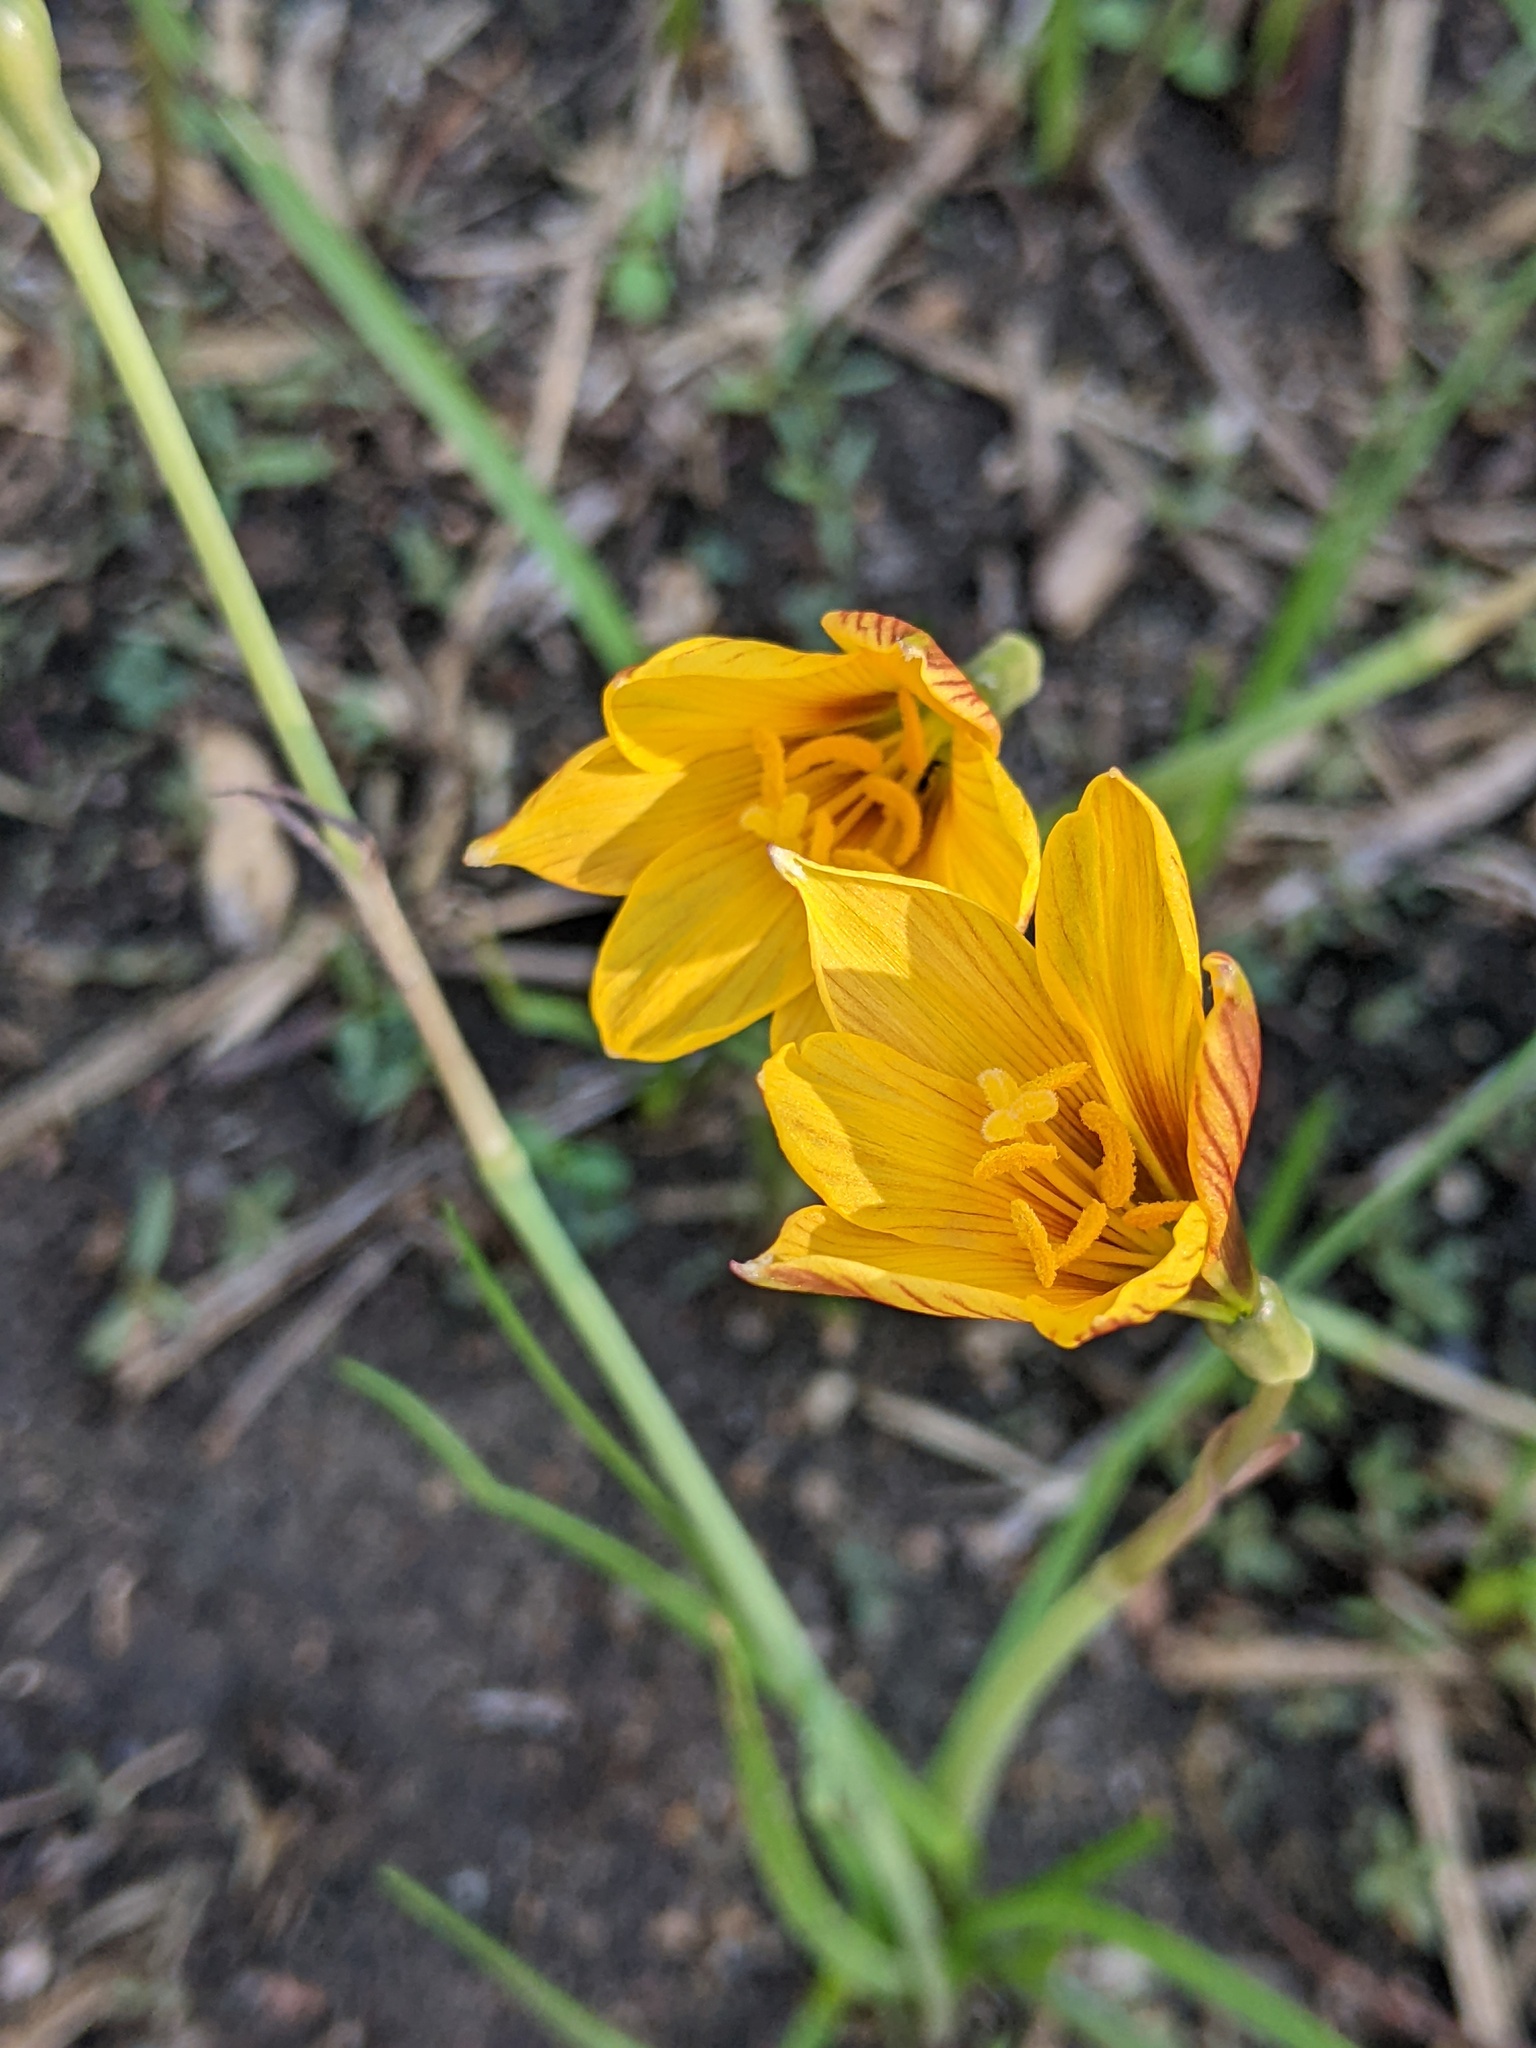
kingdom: Plantae
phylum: Tracheophyta
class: Liliopsida
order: Asparagales
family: Amaryllidaceae
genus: Zephyranthes
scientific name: Zephyranthes tubispatha
